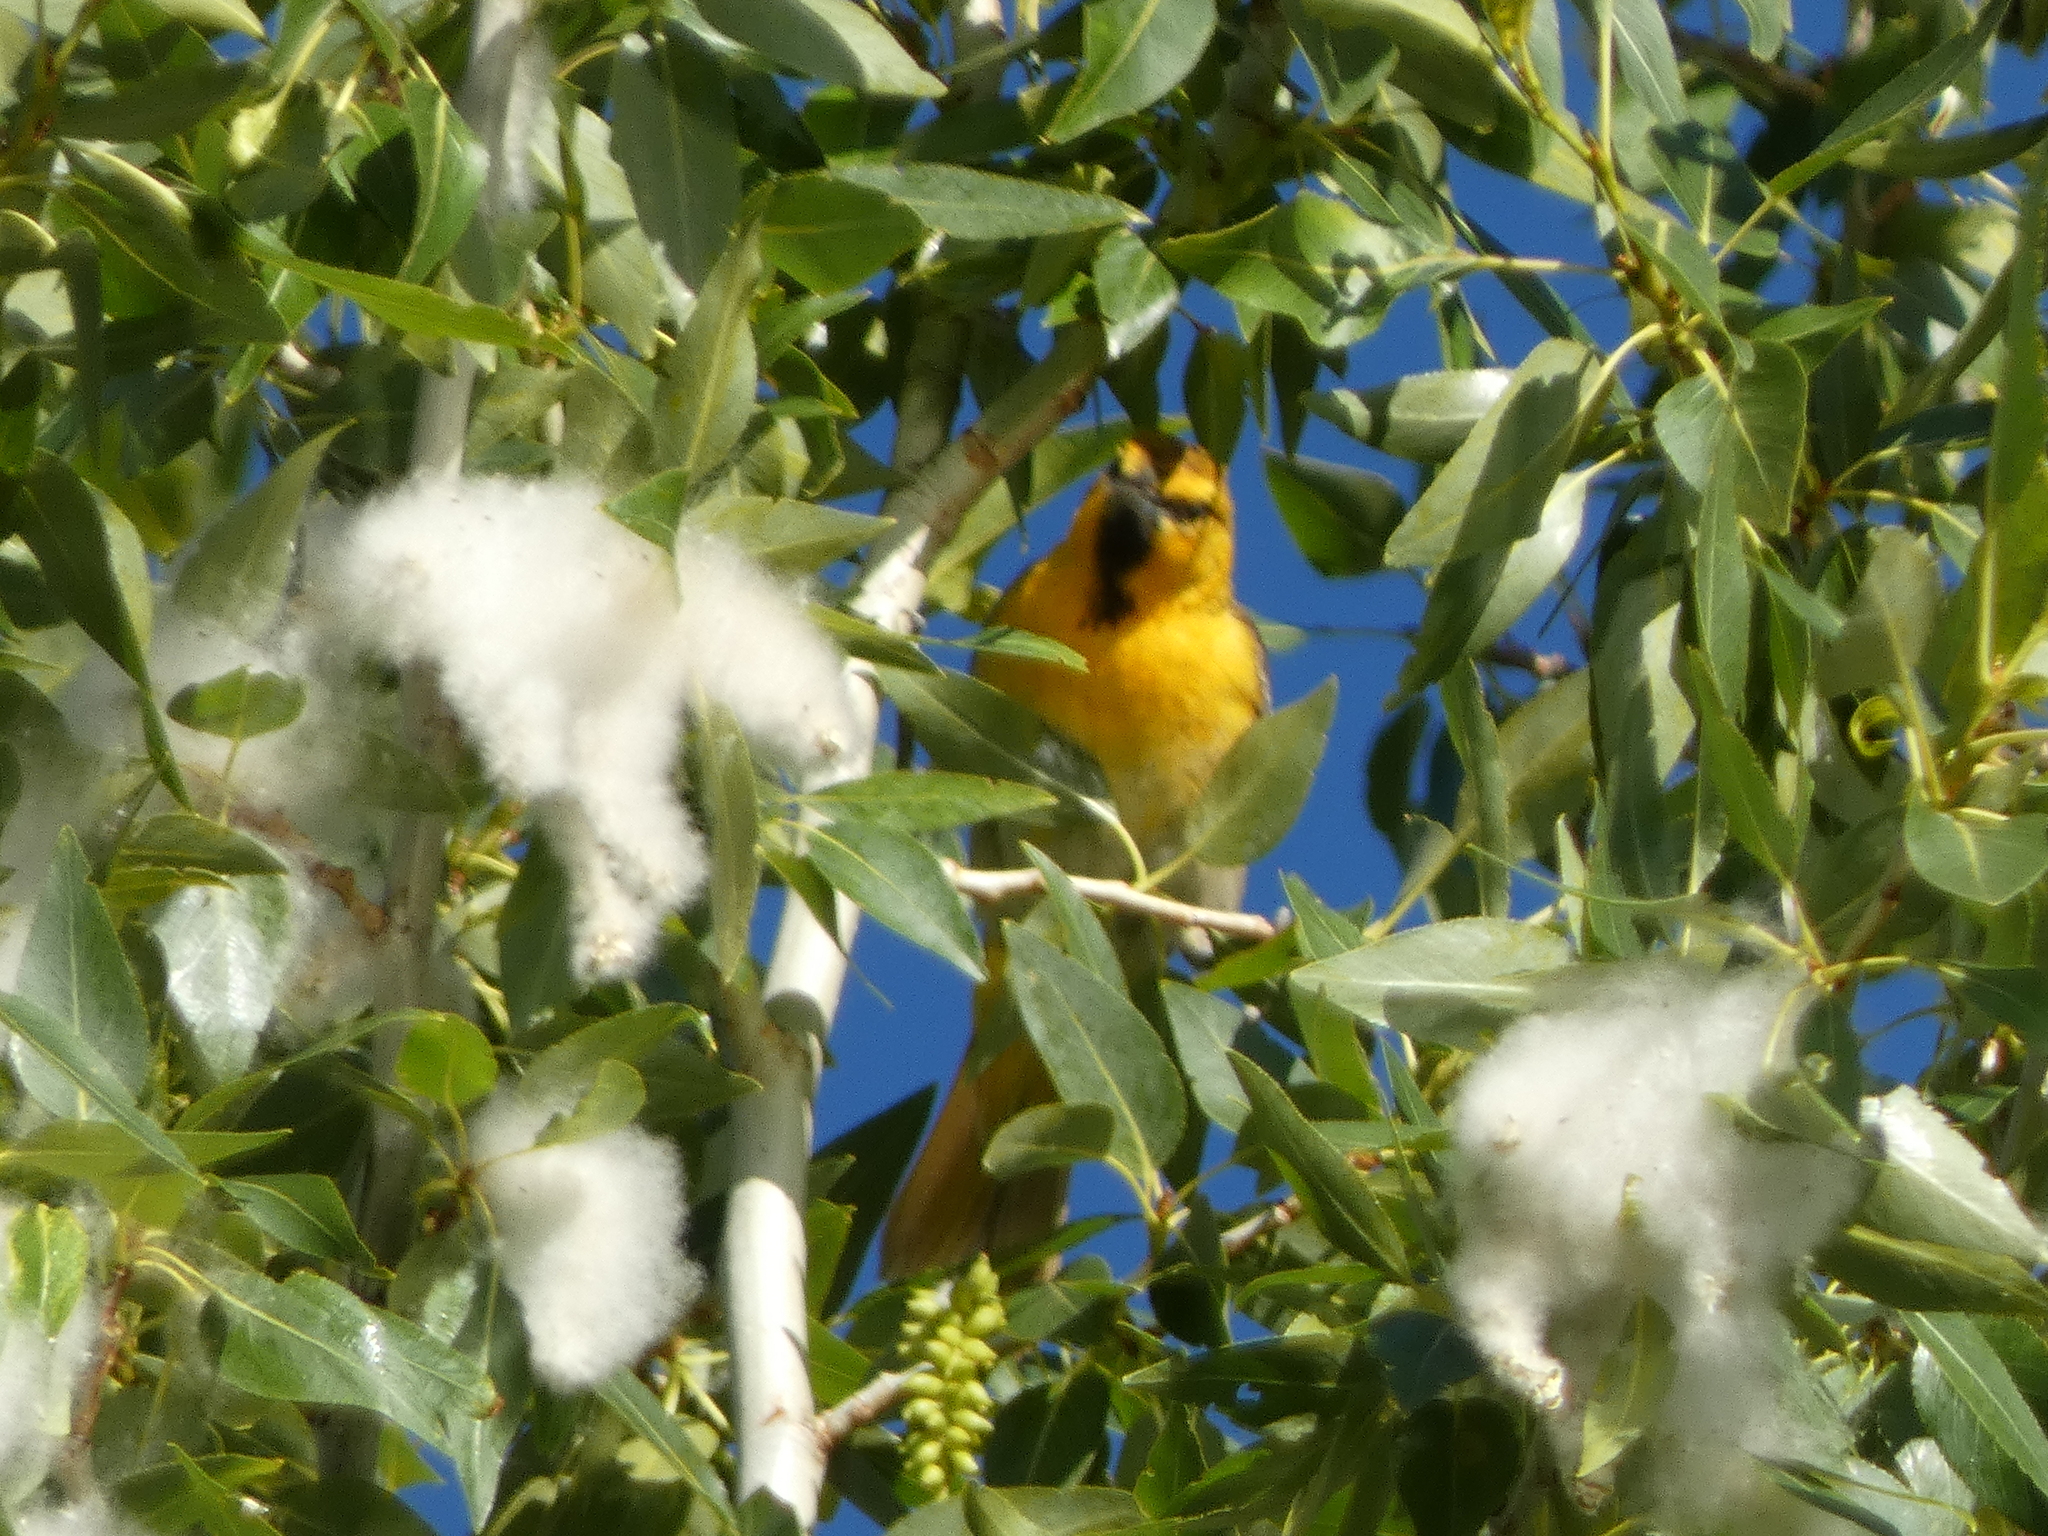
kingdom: Animalia
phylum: Chordata
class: Aves
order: Passeriformes
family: Icteridae
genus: Icterus
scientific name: Icterus bullockii
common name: Bullock's oriole
